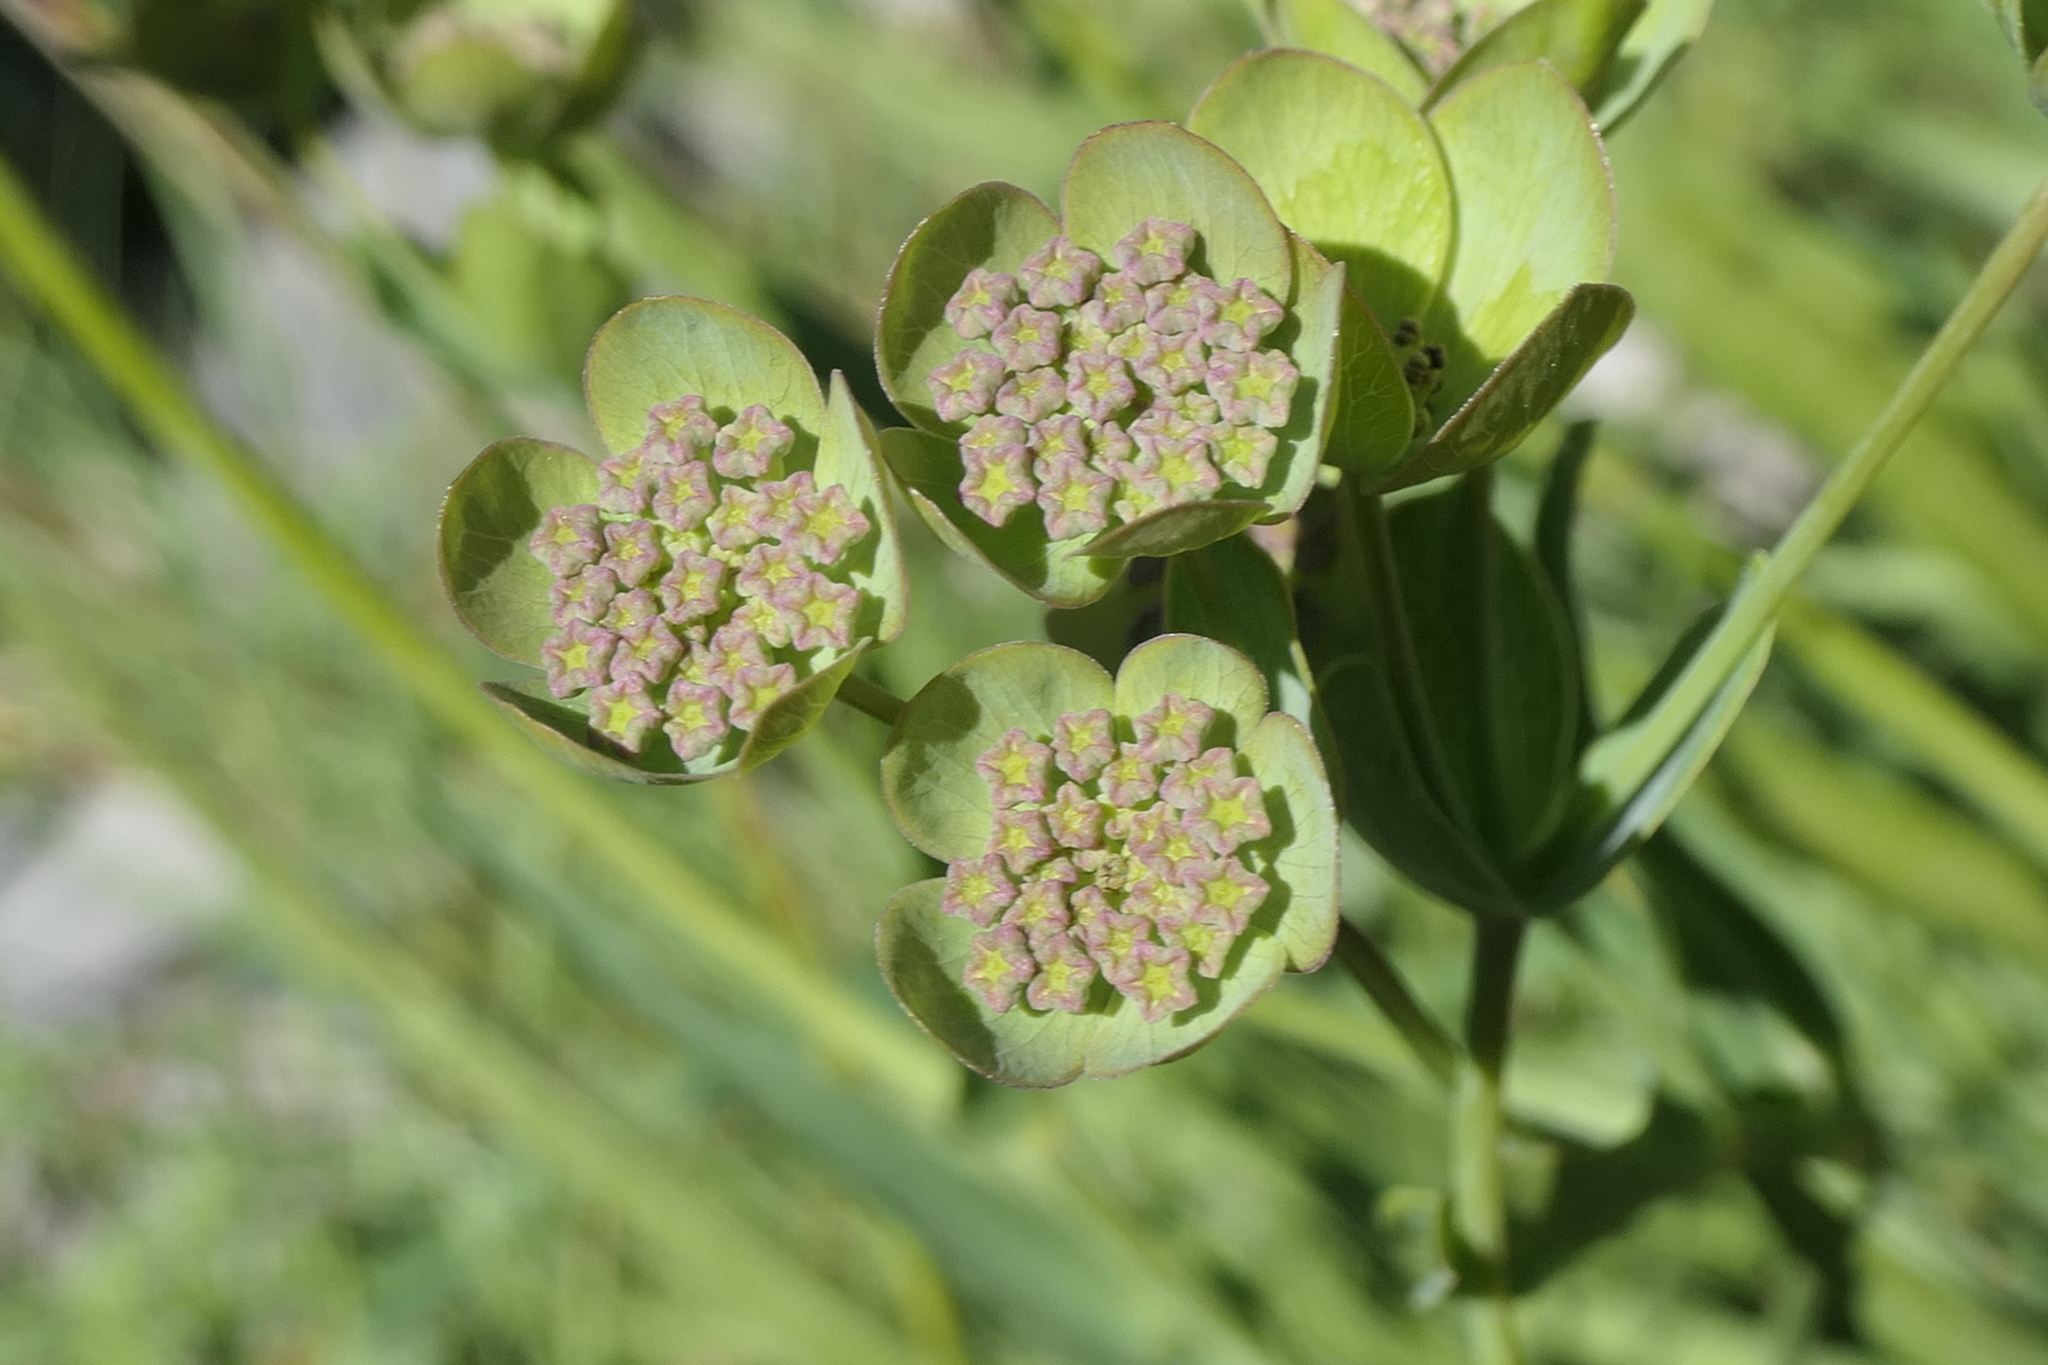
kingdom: Plantae
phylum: Tracheophyta
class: Magnoliopsida
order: Apiales
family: Apiaceae
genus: Bupleurum
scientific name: Bupleurum angulosum
